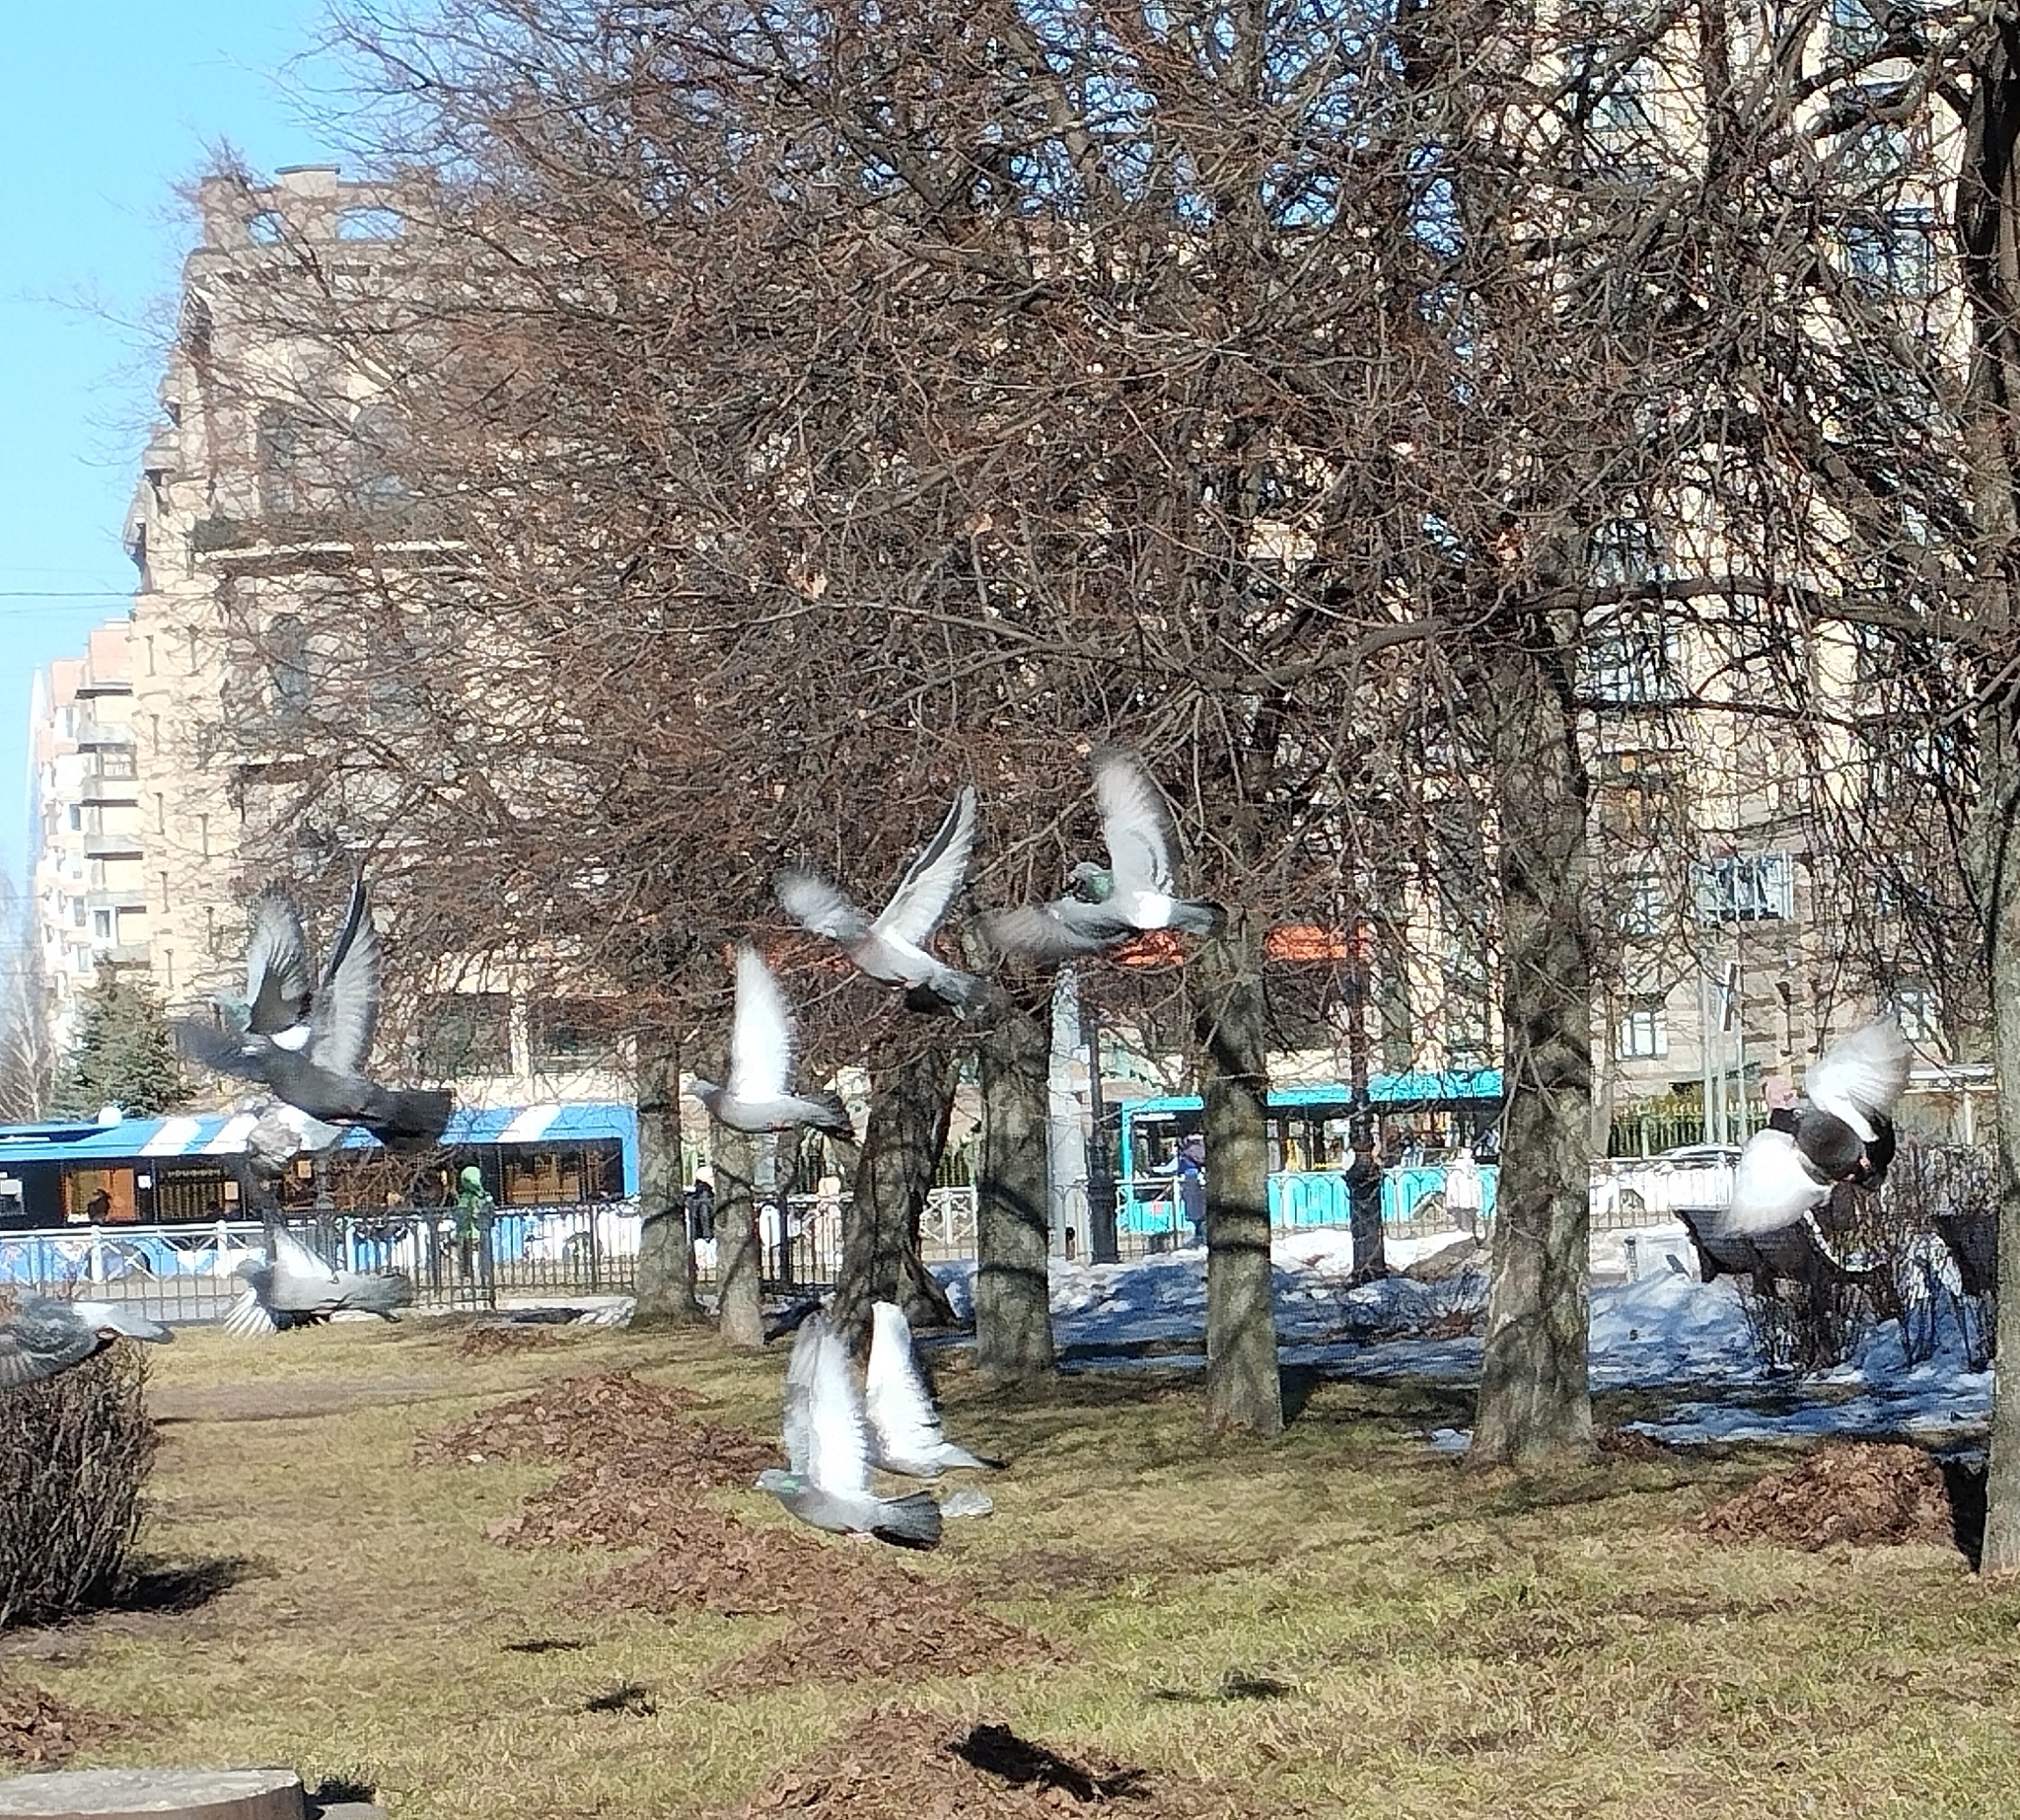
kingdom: Animalia
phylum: Chordata
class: Aves
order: Columbiformes
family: Columbidae
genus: Columba
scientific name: Columba livia
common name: Rock pigeon
